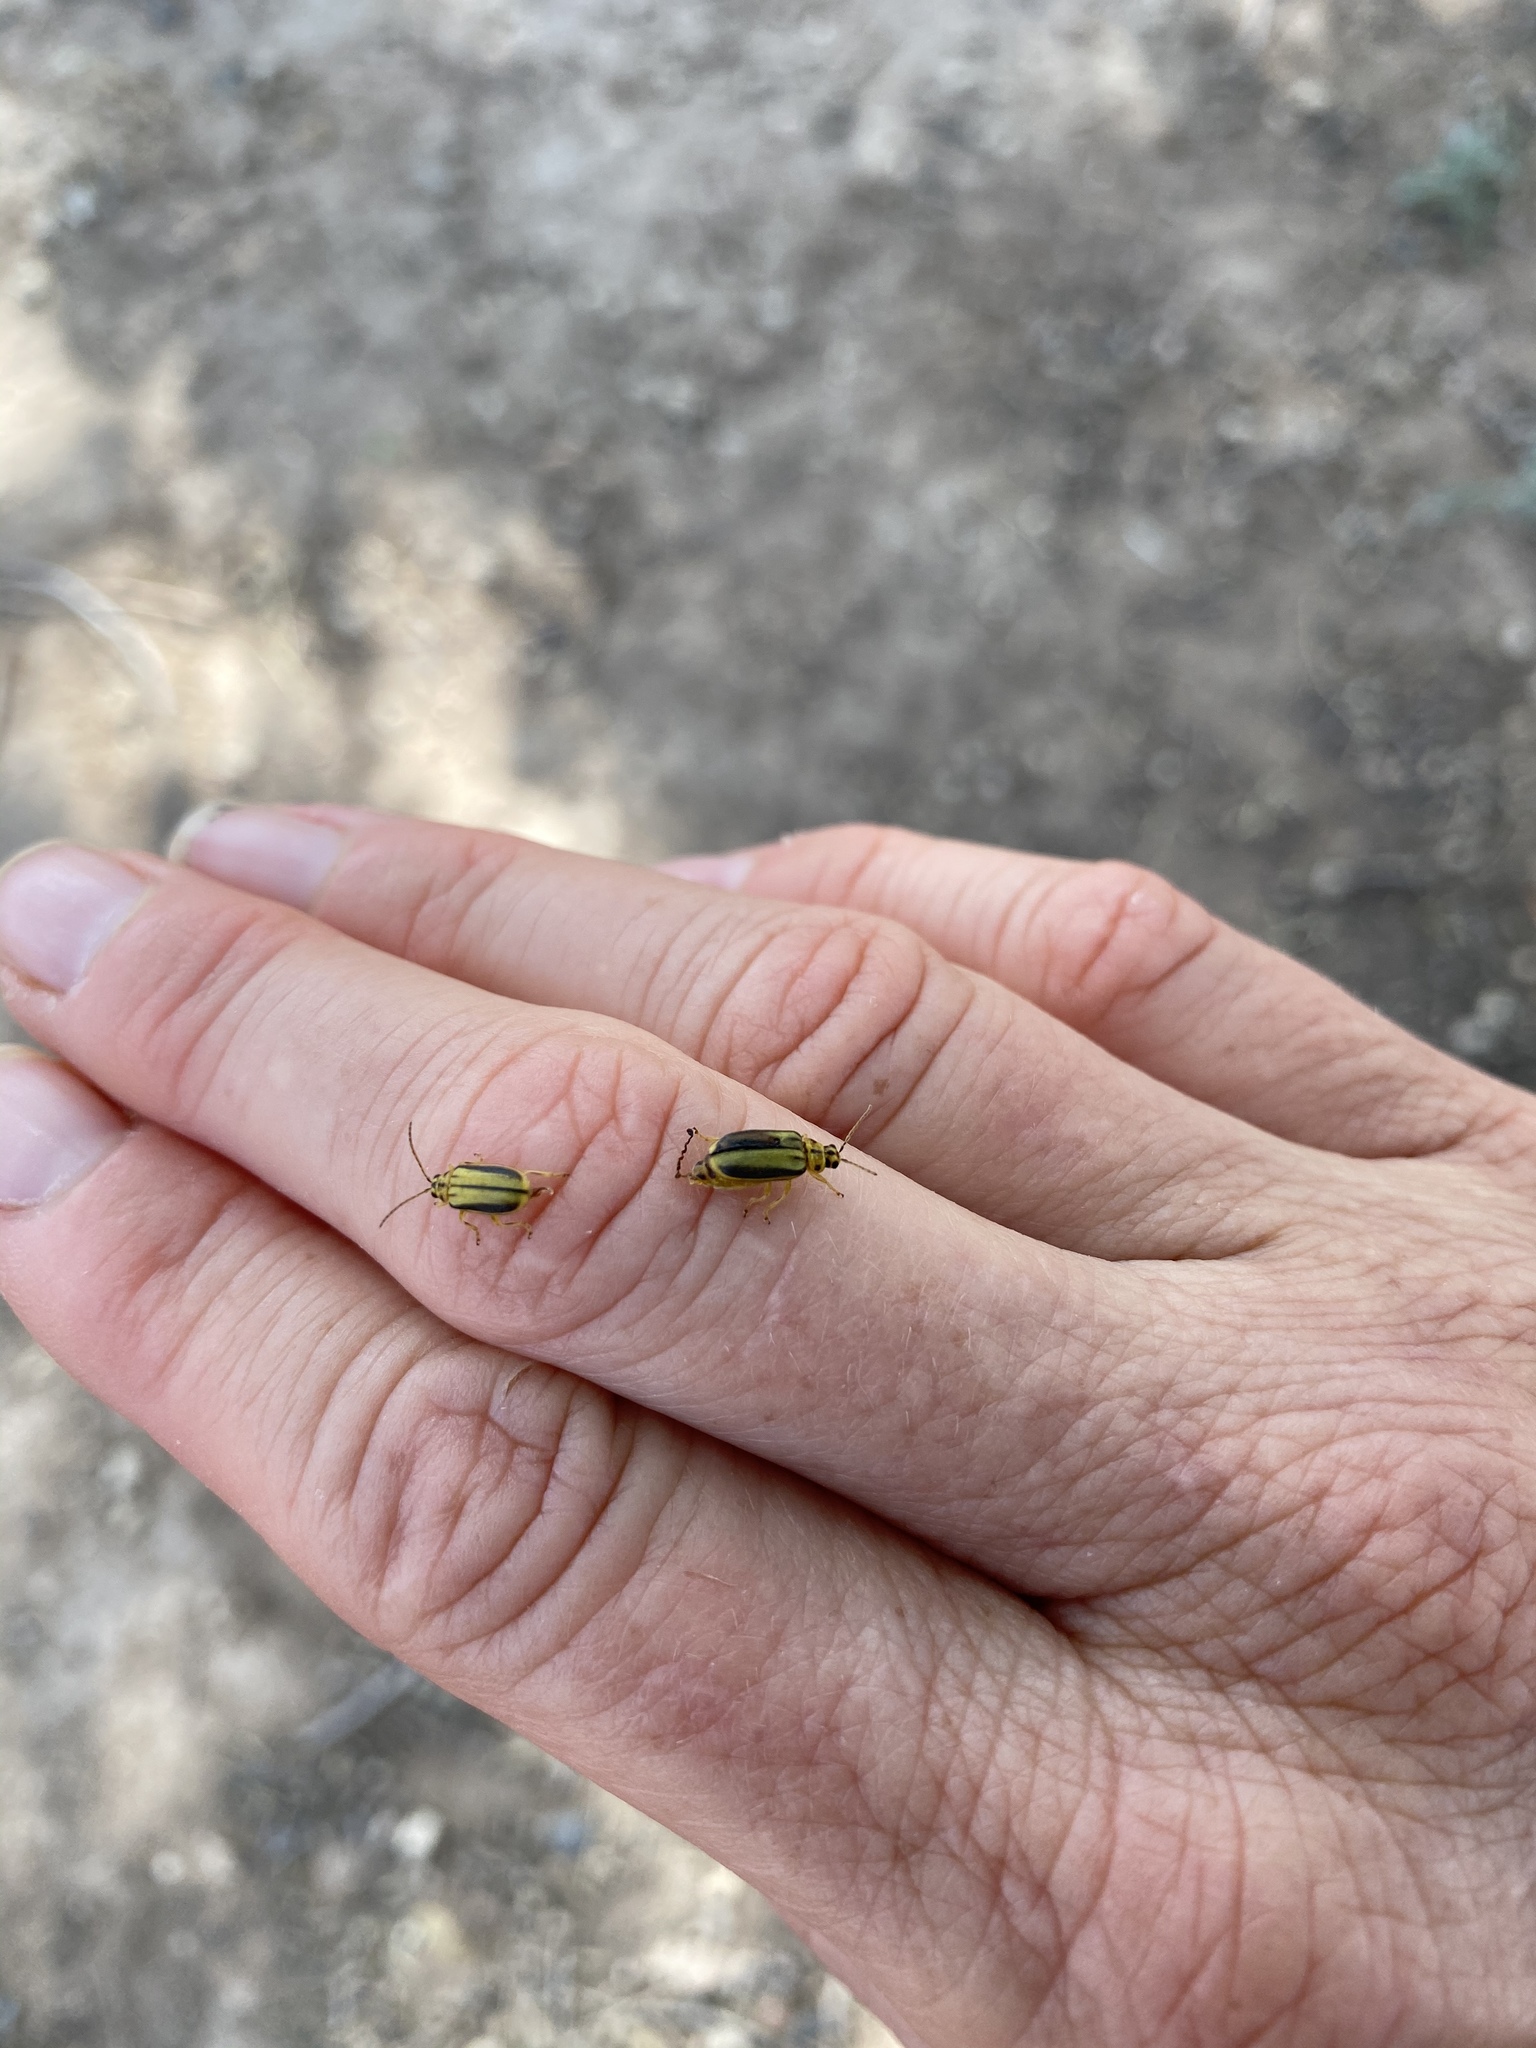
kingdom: Animalia
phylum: Arthropoda
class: Insecta
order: Coleoptera
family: Chrysomelidae
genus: Xanthogaleruca
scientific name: Xanthogaleruca luteola
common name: Elm leaf beetle
